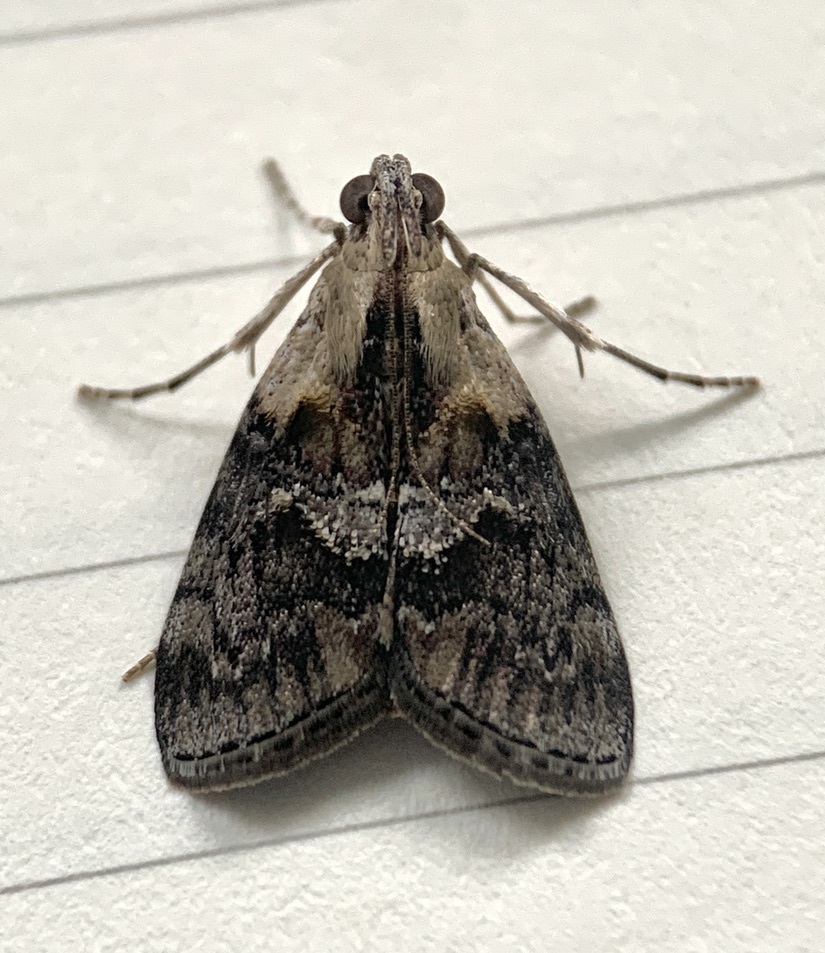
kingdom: Animalia
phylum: Arthropoda
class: Insecta
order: Lepidoptera
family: Pyralidae
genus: Pococera
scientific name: Pococera expandens
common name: Striped oak webworm moth
